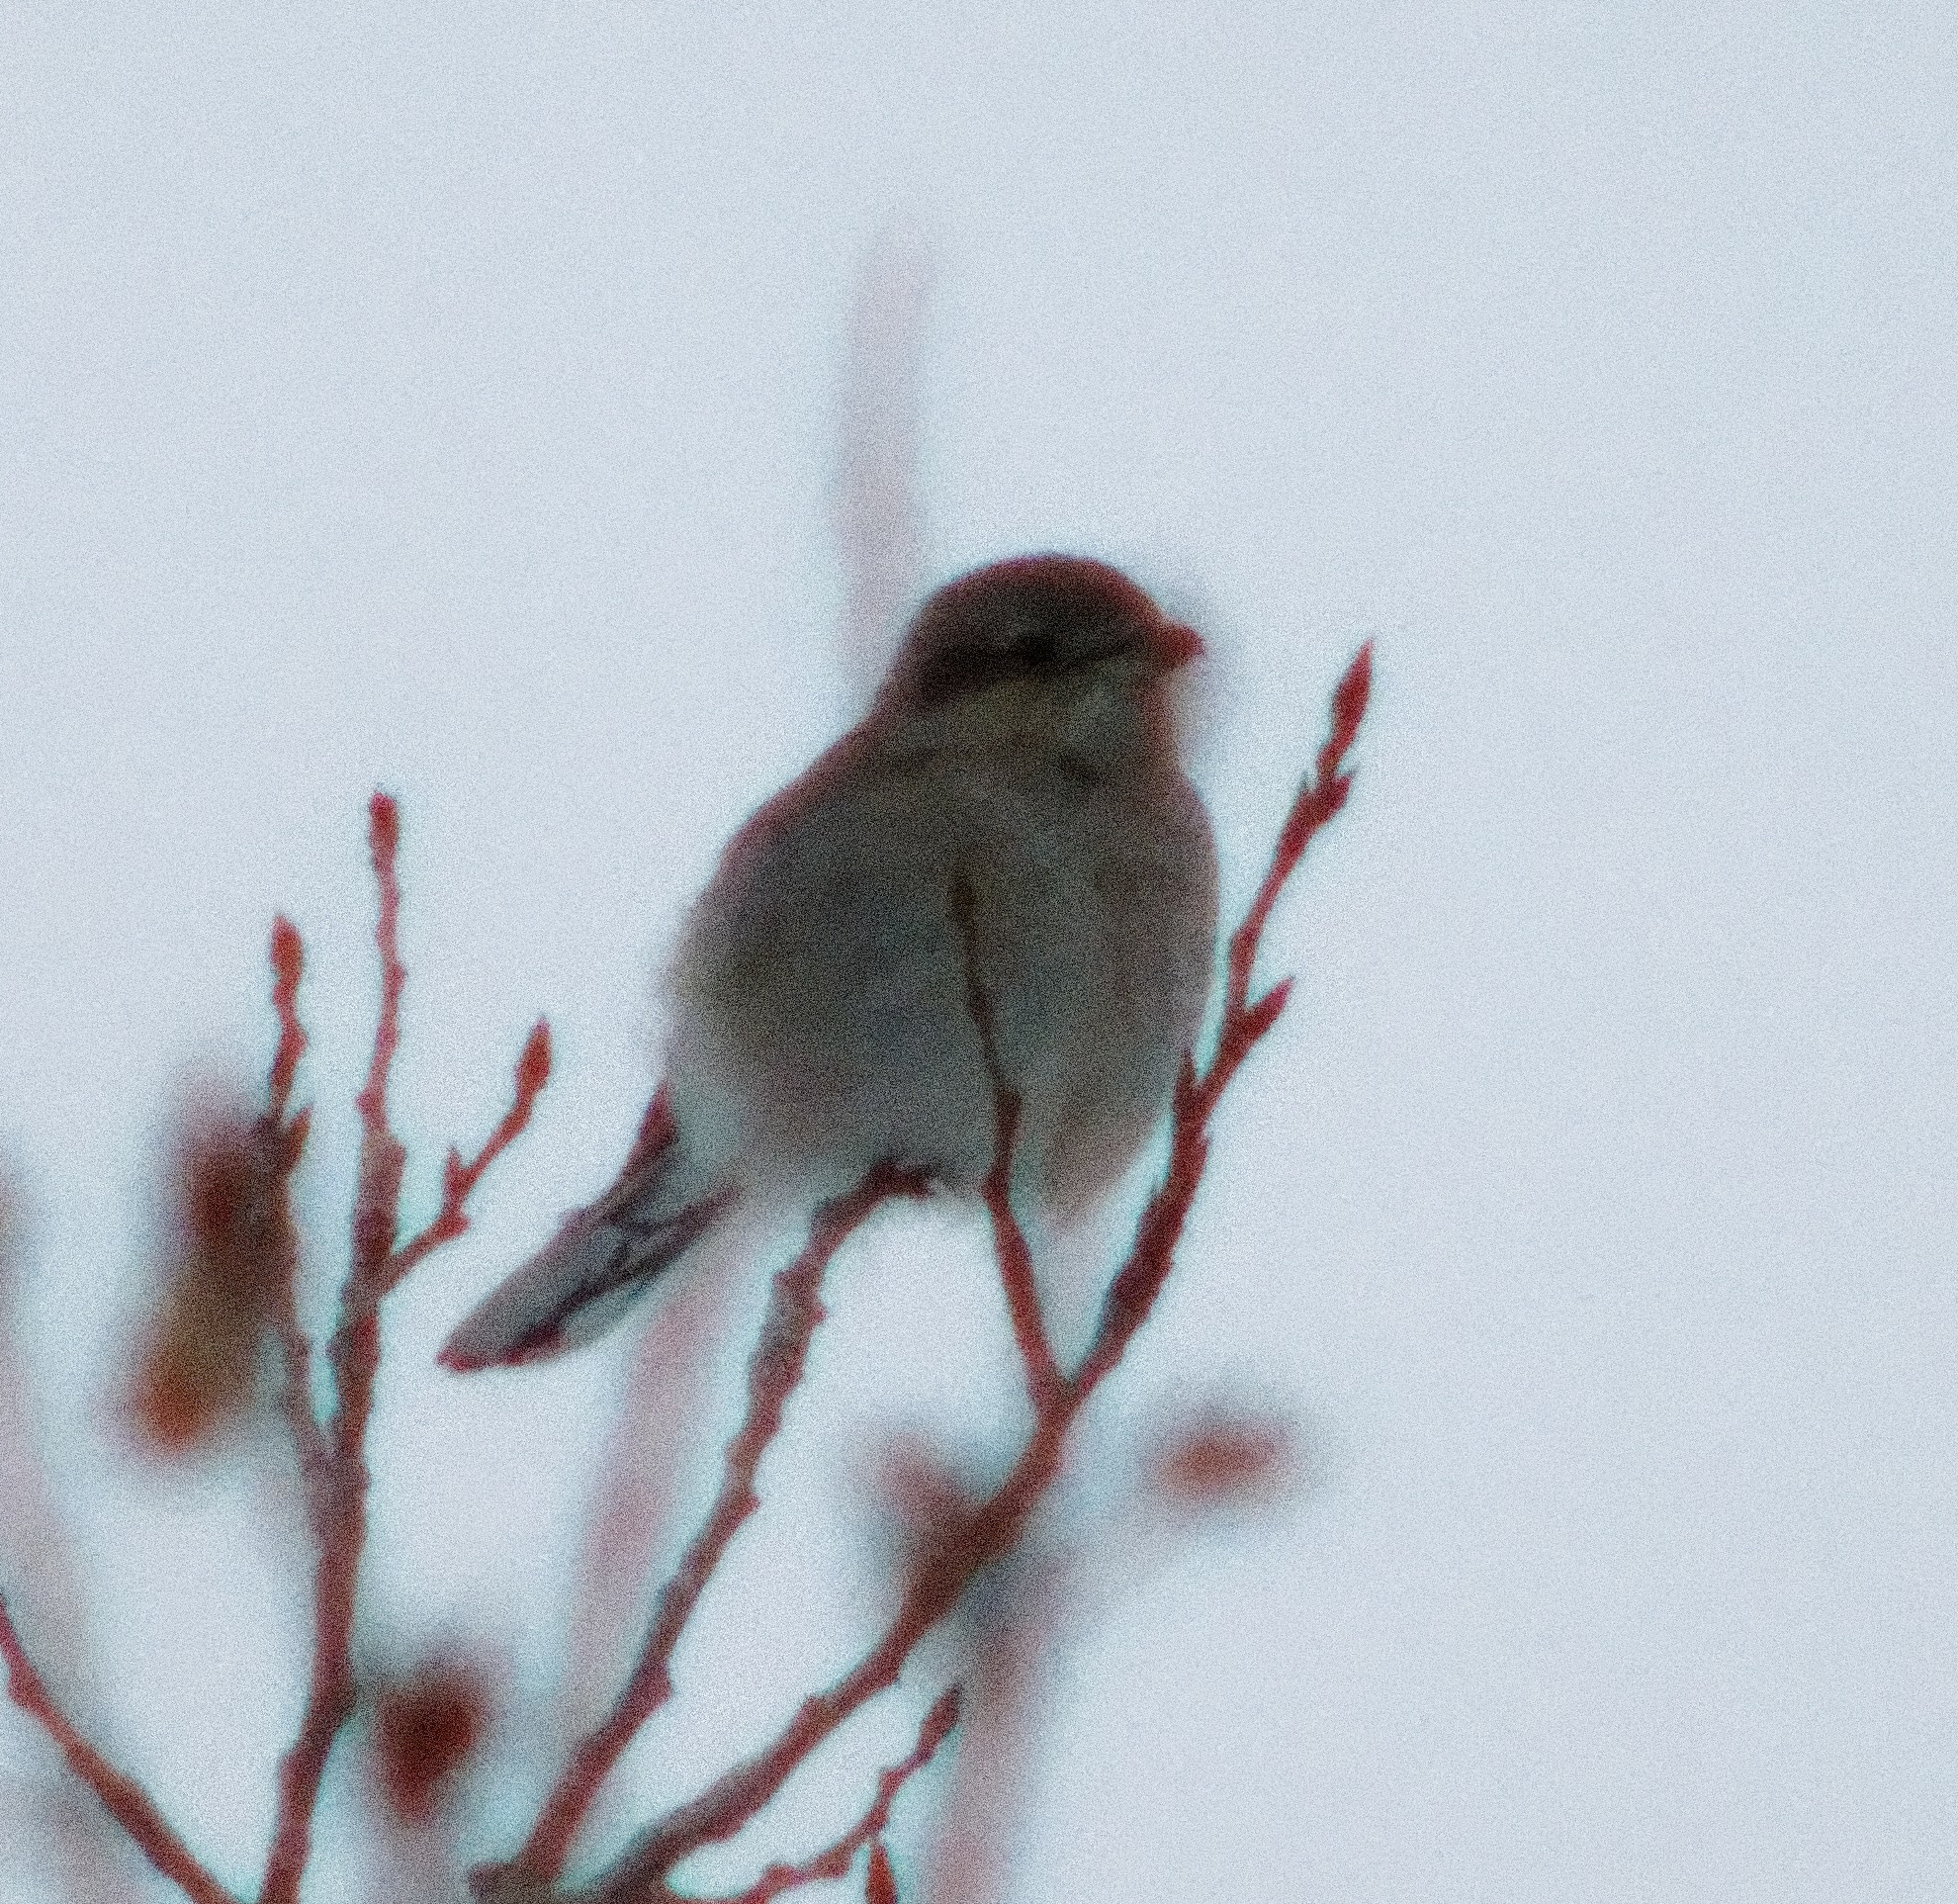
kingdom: Animalia
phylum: Chordata
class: Aves
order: Passeriformes
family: Laniidae
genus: Lanius
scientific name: Lanius borealis
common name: Northern shrike
